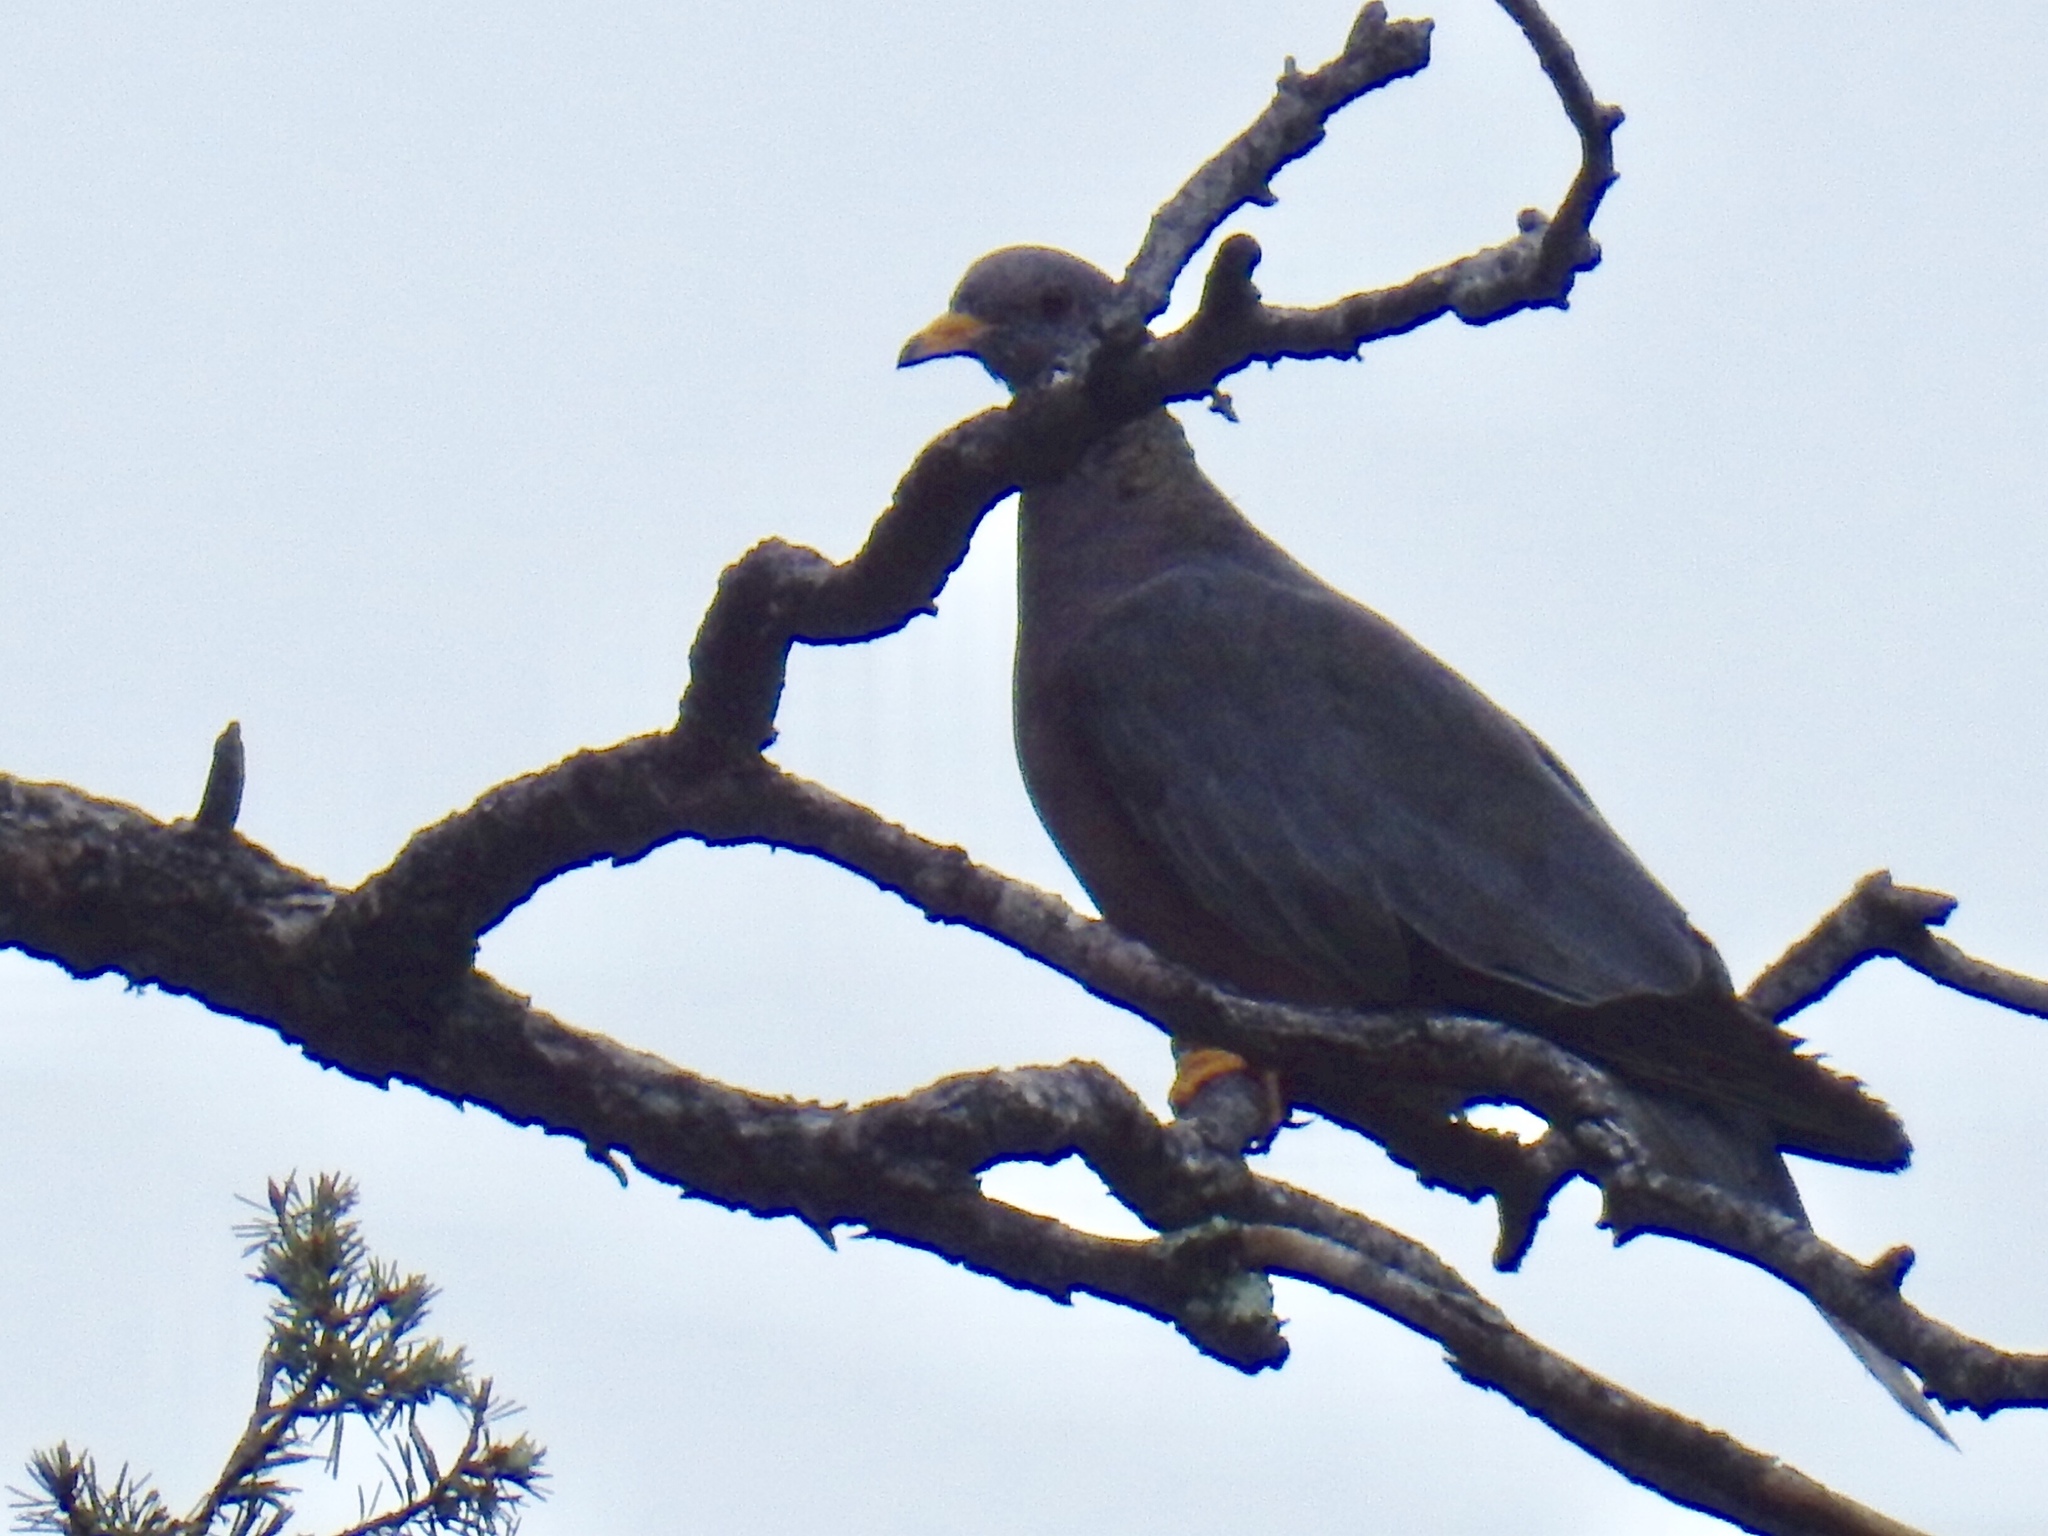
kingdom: Animalia
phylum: Chordata
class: Aves
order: Columbiformes
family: Columbidae
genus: Patagioenas
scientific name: Patagioenas fasciata
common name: Band-tailed pigeon
